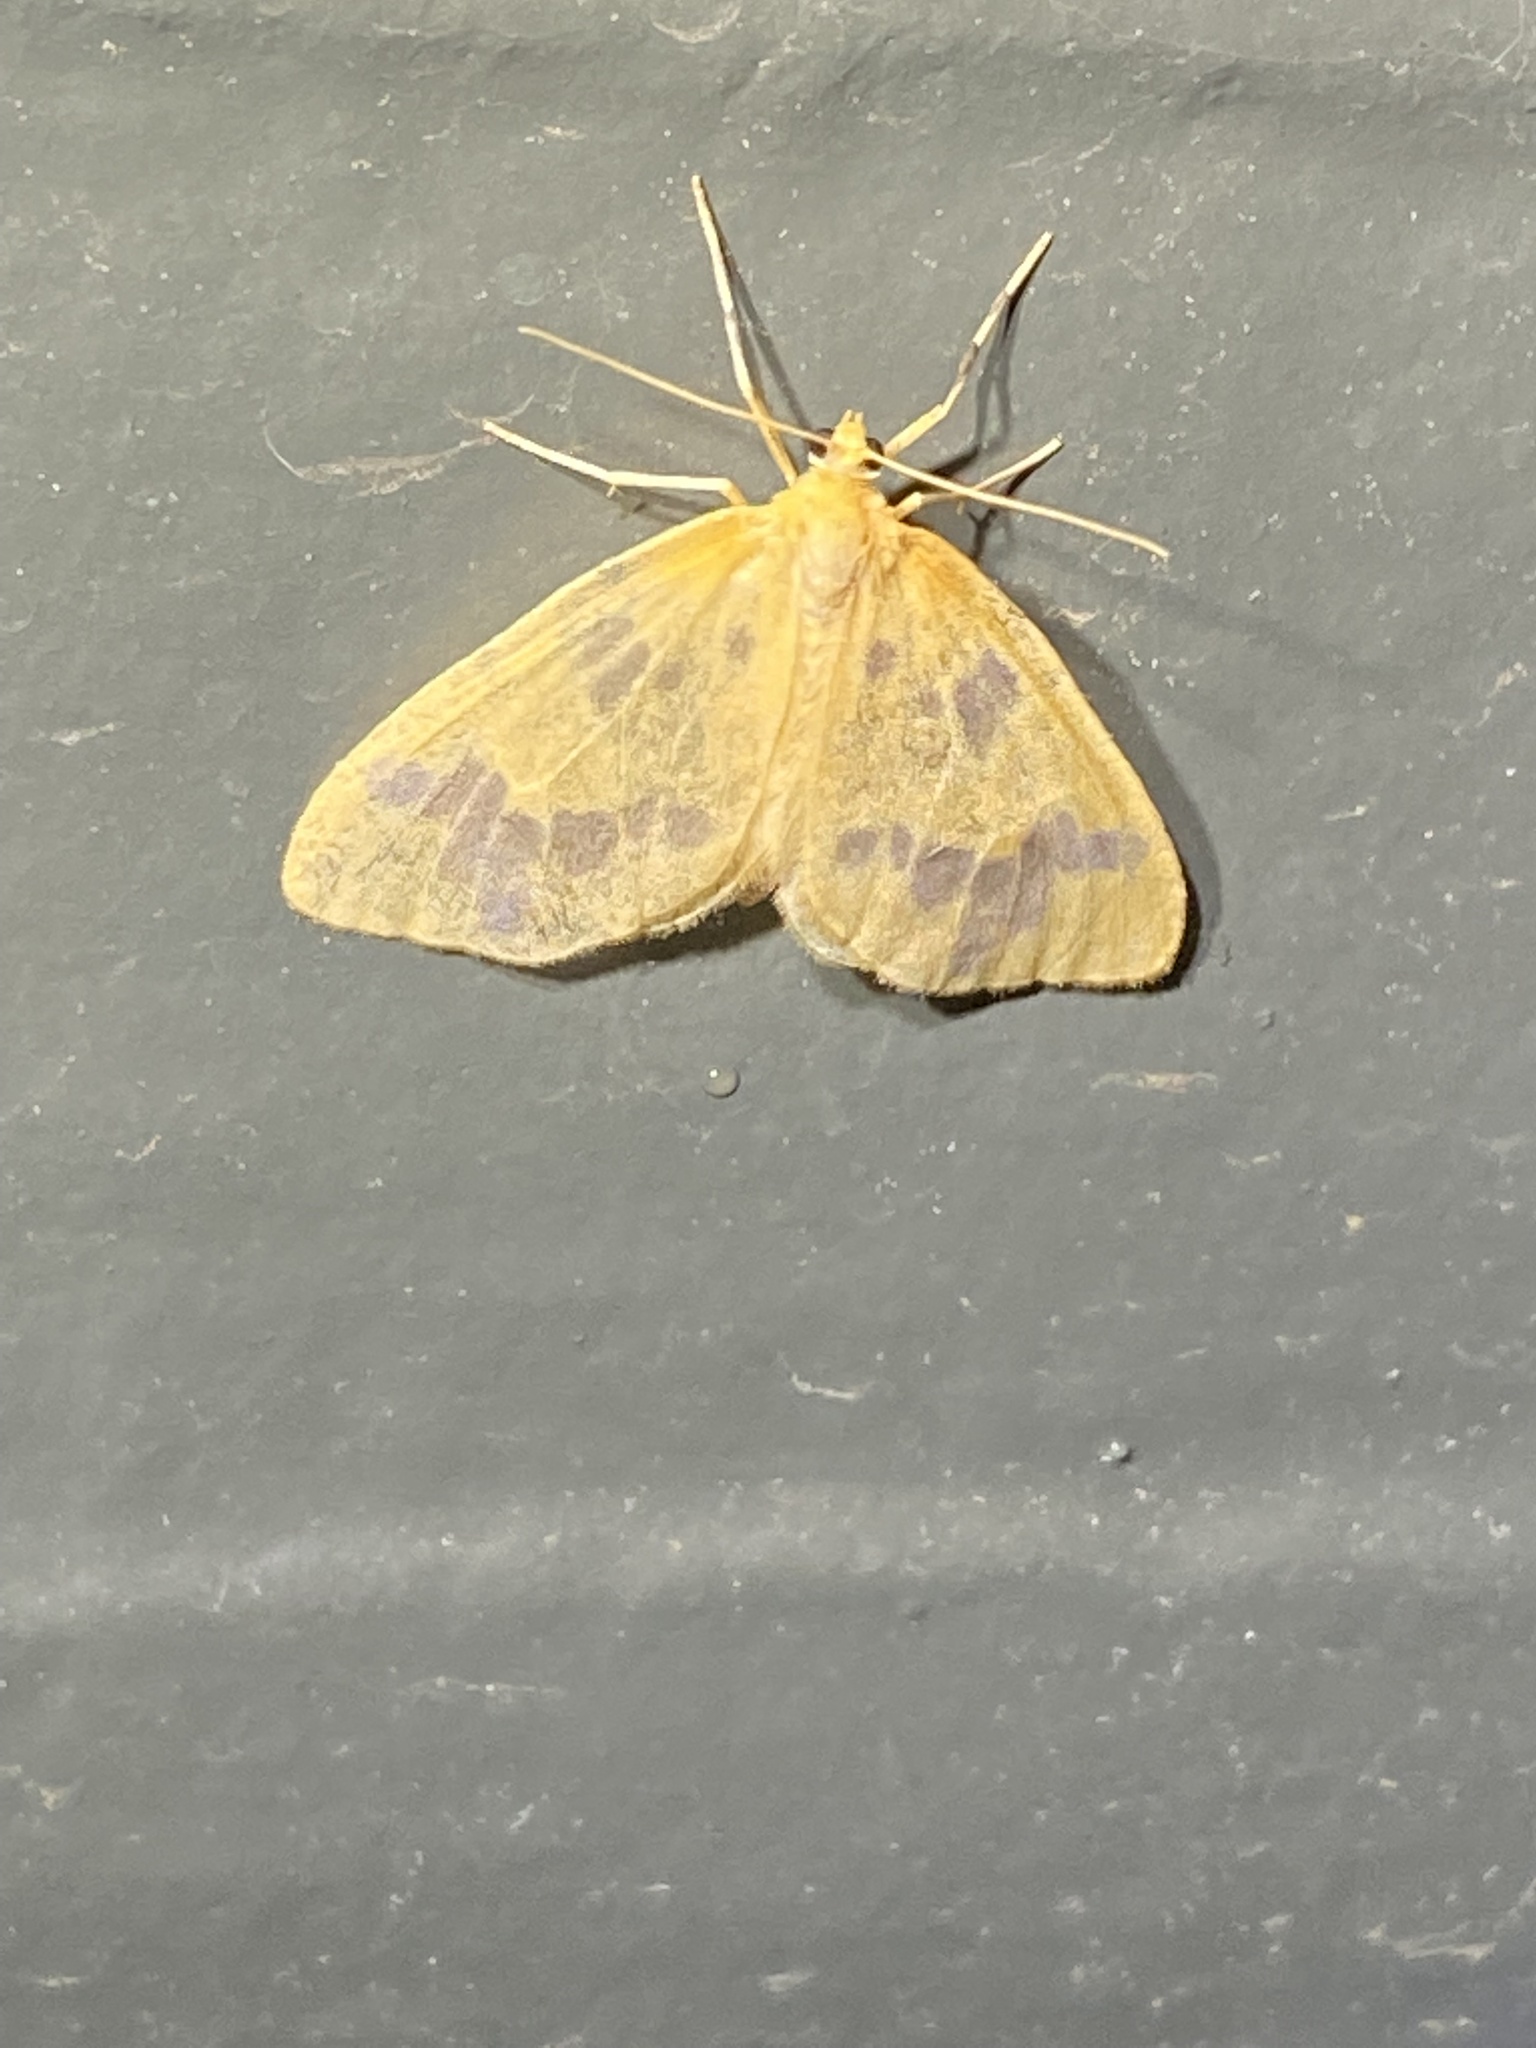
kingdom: Animalia
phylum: Arthropoda
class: Insecta
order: Lepidoptera
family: Geometridae
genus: Eubaphe
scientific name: Eubaphe mendica
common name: Beggar
